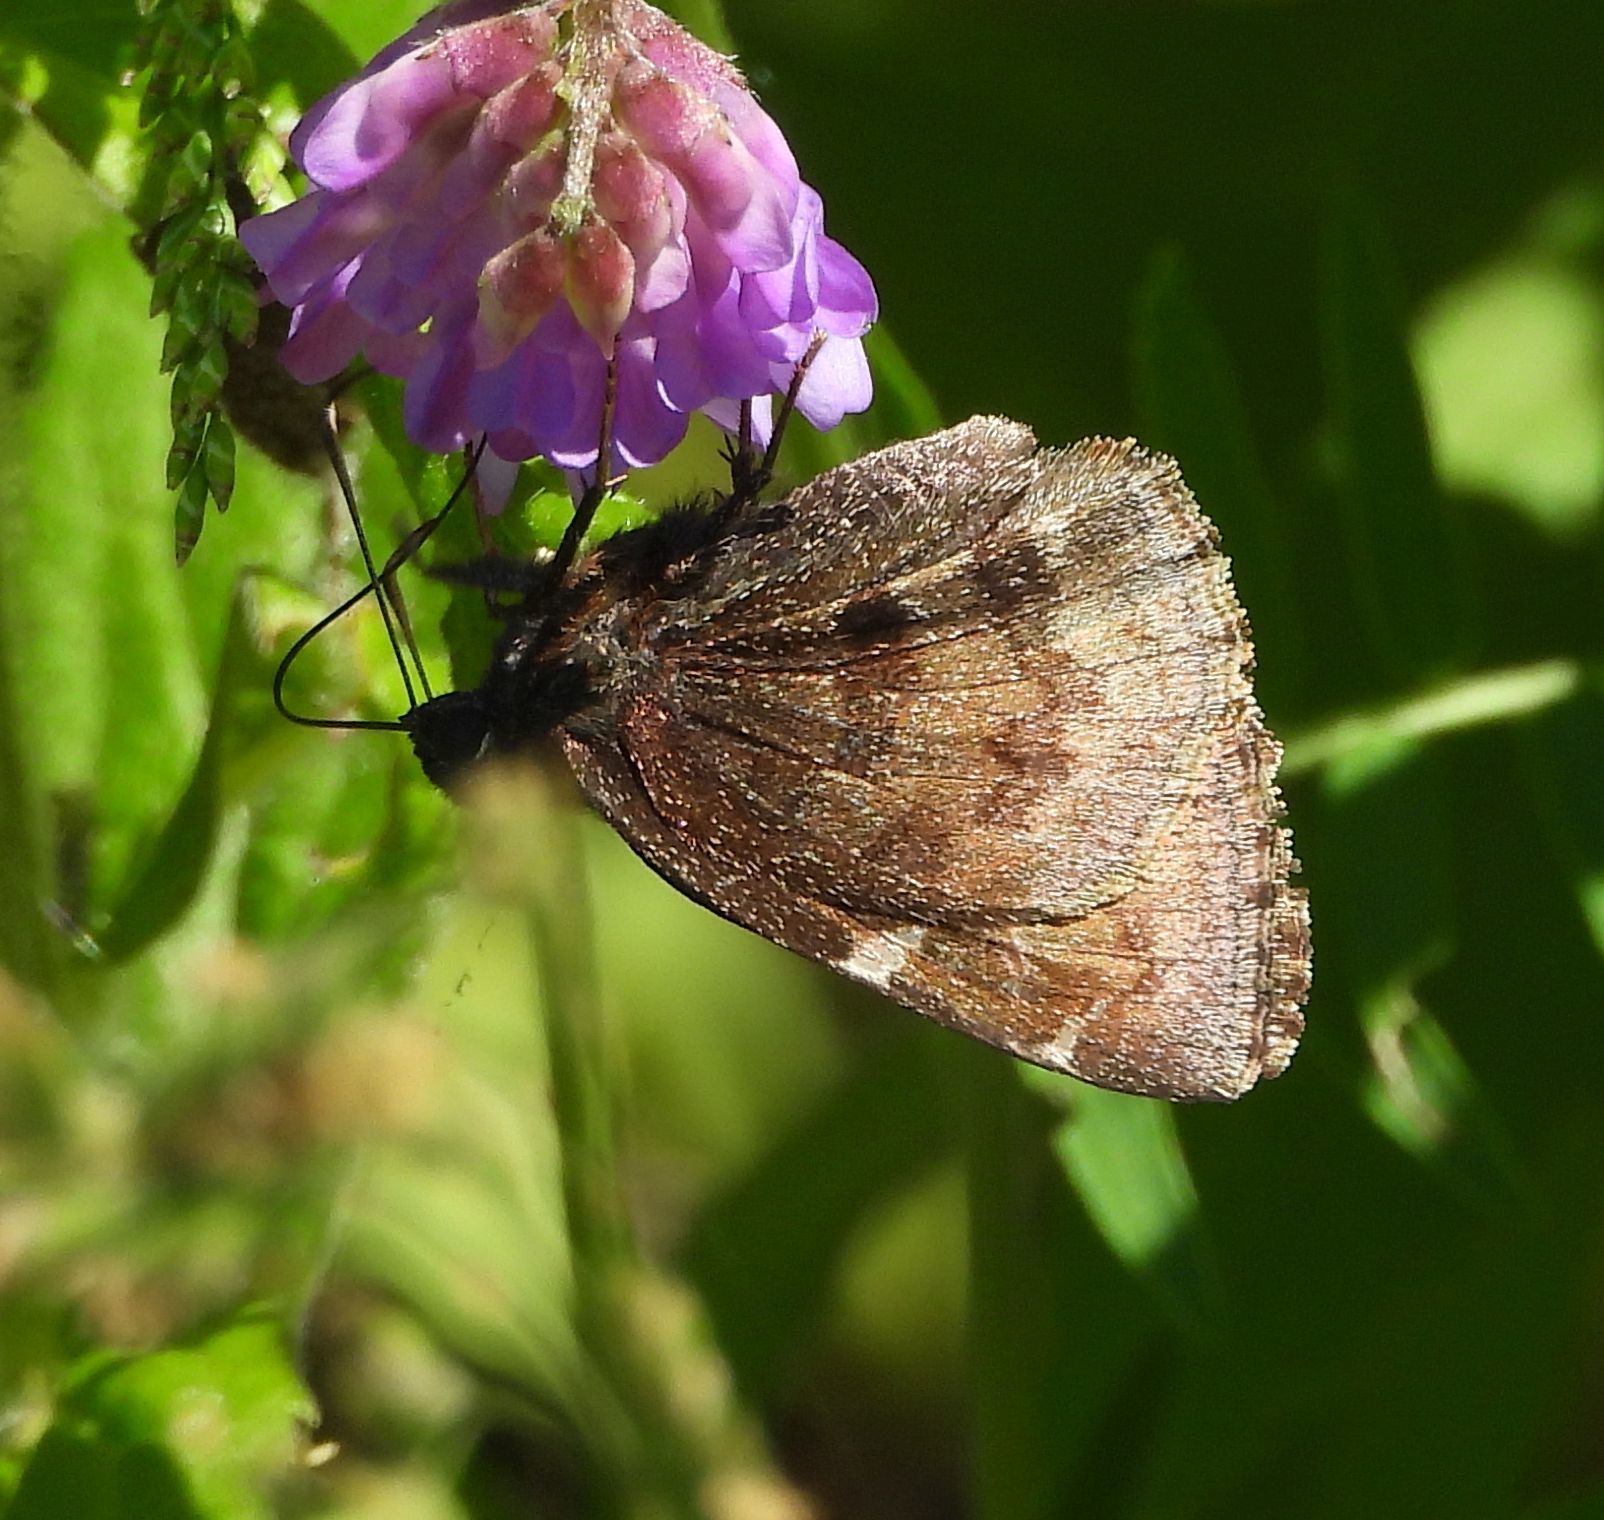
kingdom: Animalia
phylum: Arthropoda
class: Insecta
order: Lepidoptera
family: Hesperiidae
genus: Thorybes
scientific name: Thorybes pylades
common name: Northern cloudywing
